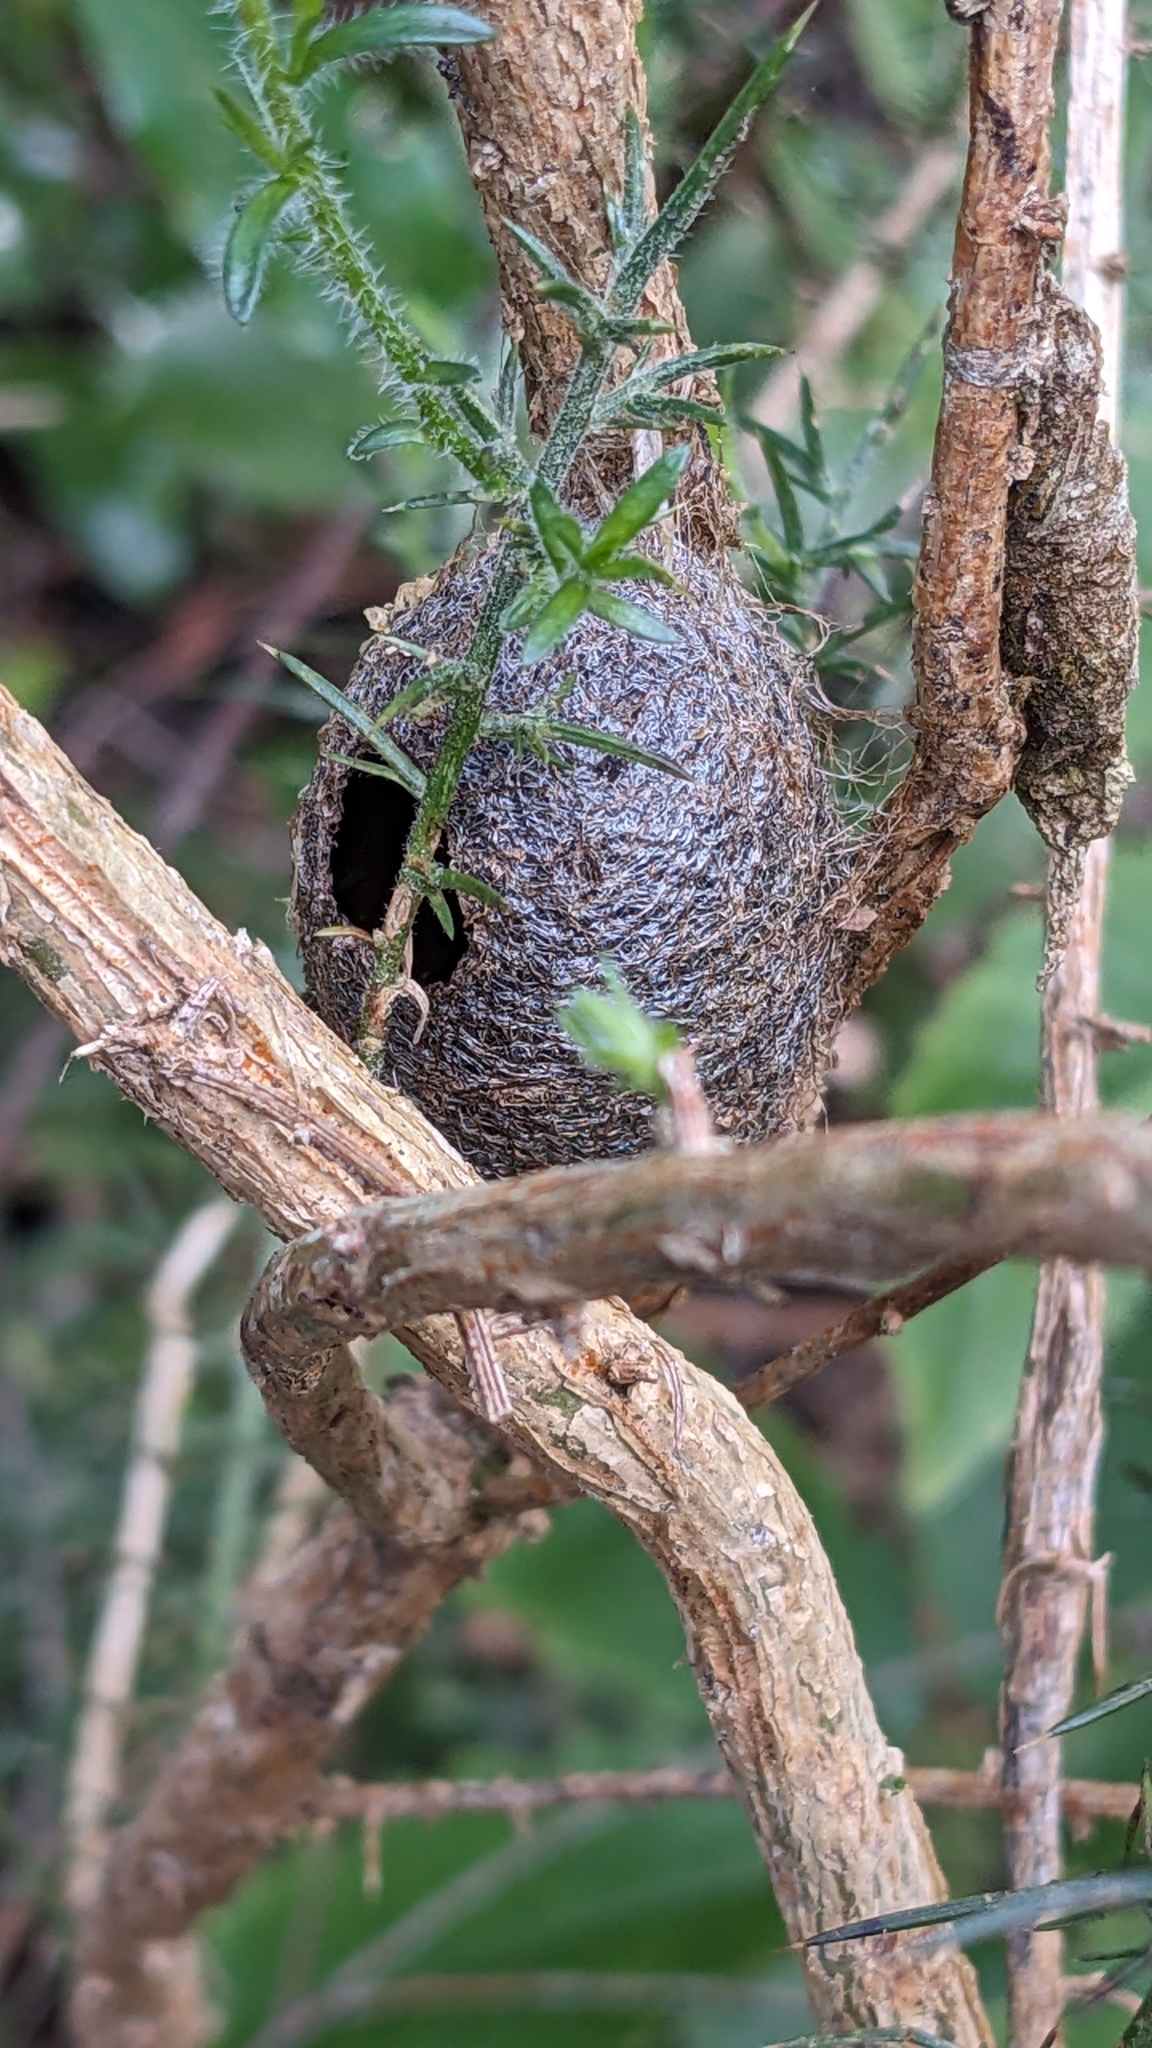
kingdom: Animalia
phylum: Arthropoda
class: Insecta
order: Lepidoptera
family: Saturniidae
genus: Opodiphthera
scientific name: Opodiphthera
